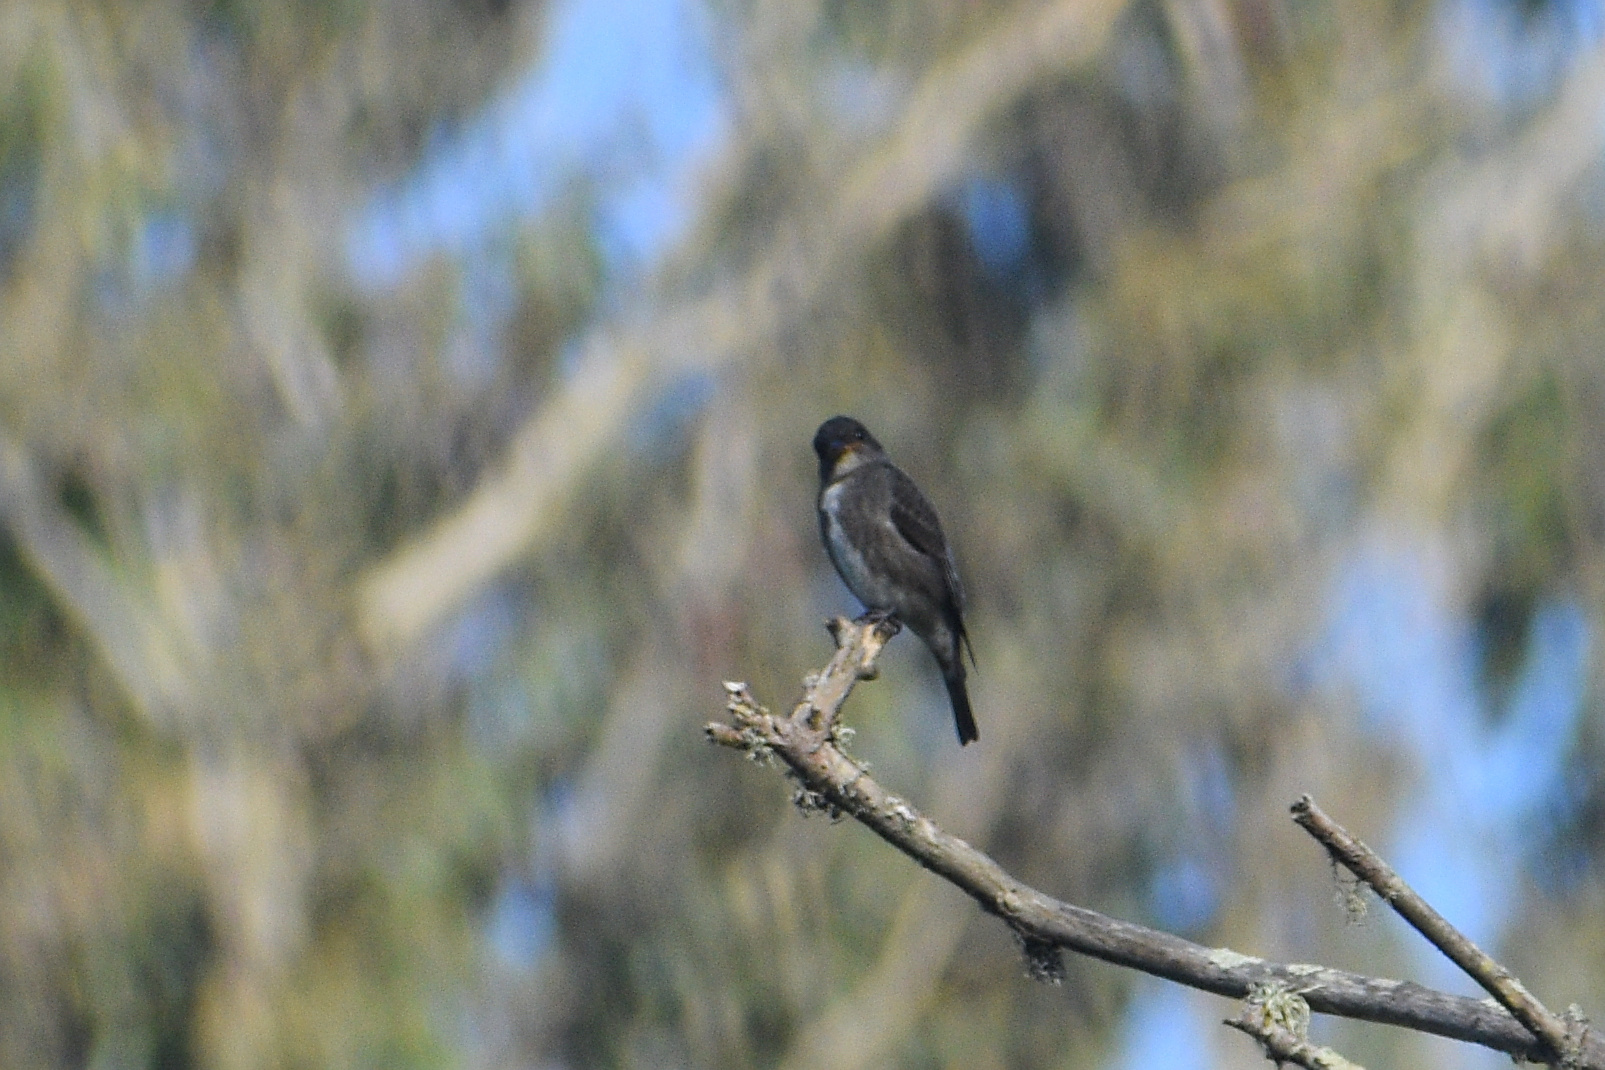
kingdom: Animalia
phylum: Chordata
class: Aves
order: Passeriformes
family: Tyrannidae
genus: Contopus
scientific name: Contopus cooperi
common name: Olive-sided flycatcher
